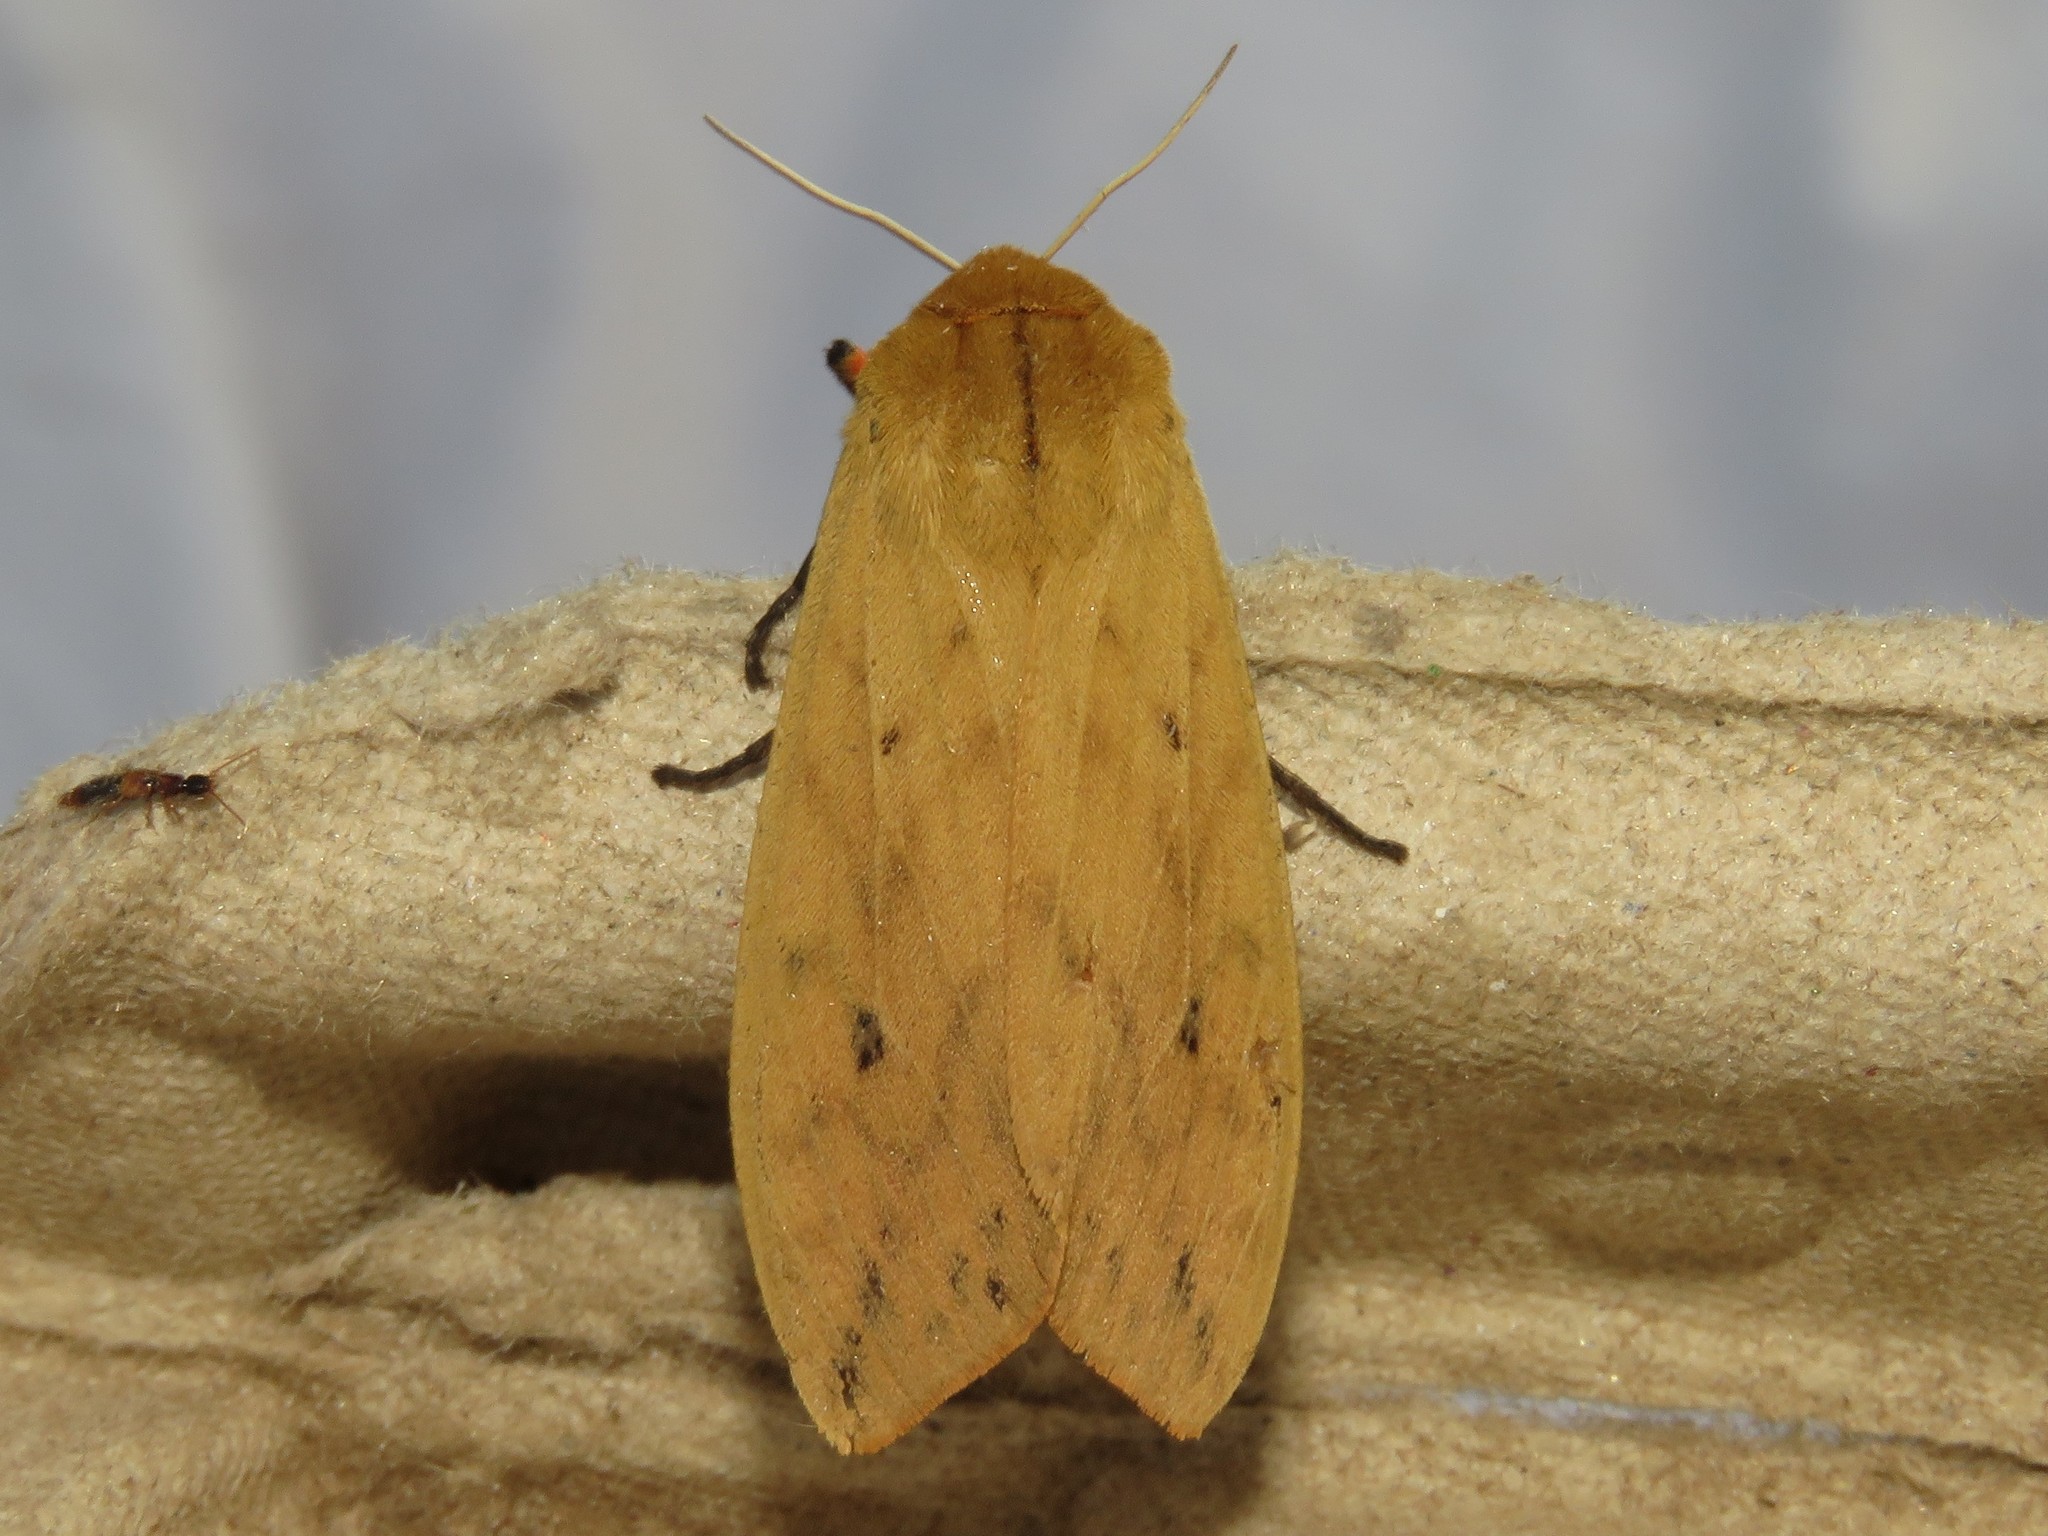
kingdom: Animalia
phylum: Arthropoda
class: Insecta
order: Lepidoptera
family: Erebidae
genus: Pyrrharctia
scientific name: Pyrrharctia isabella
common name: Isabella tiger moth
